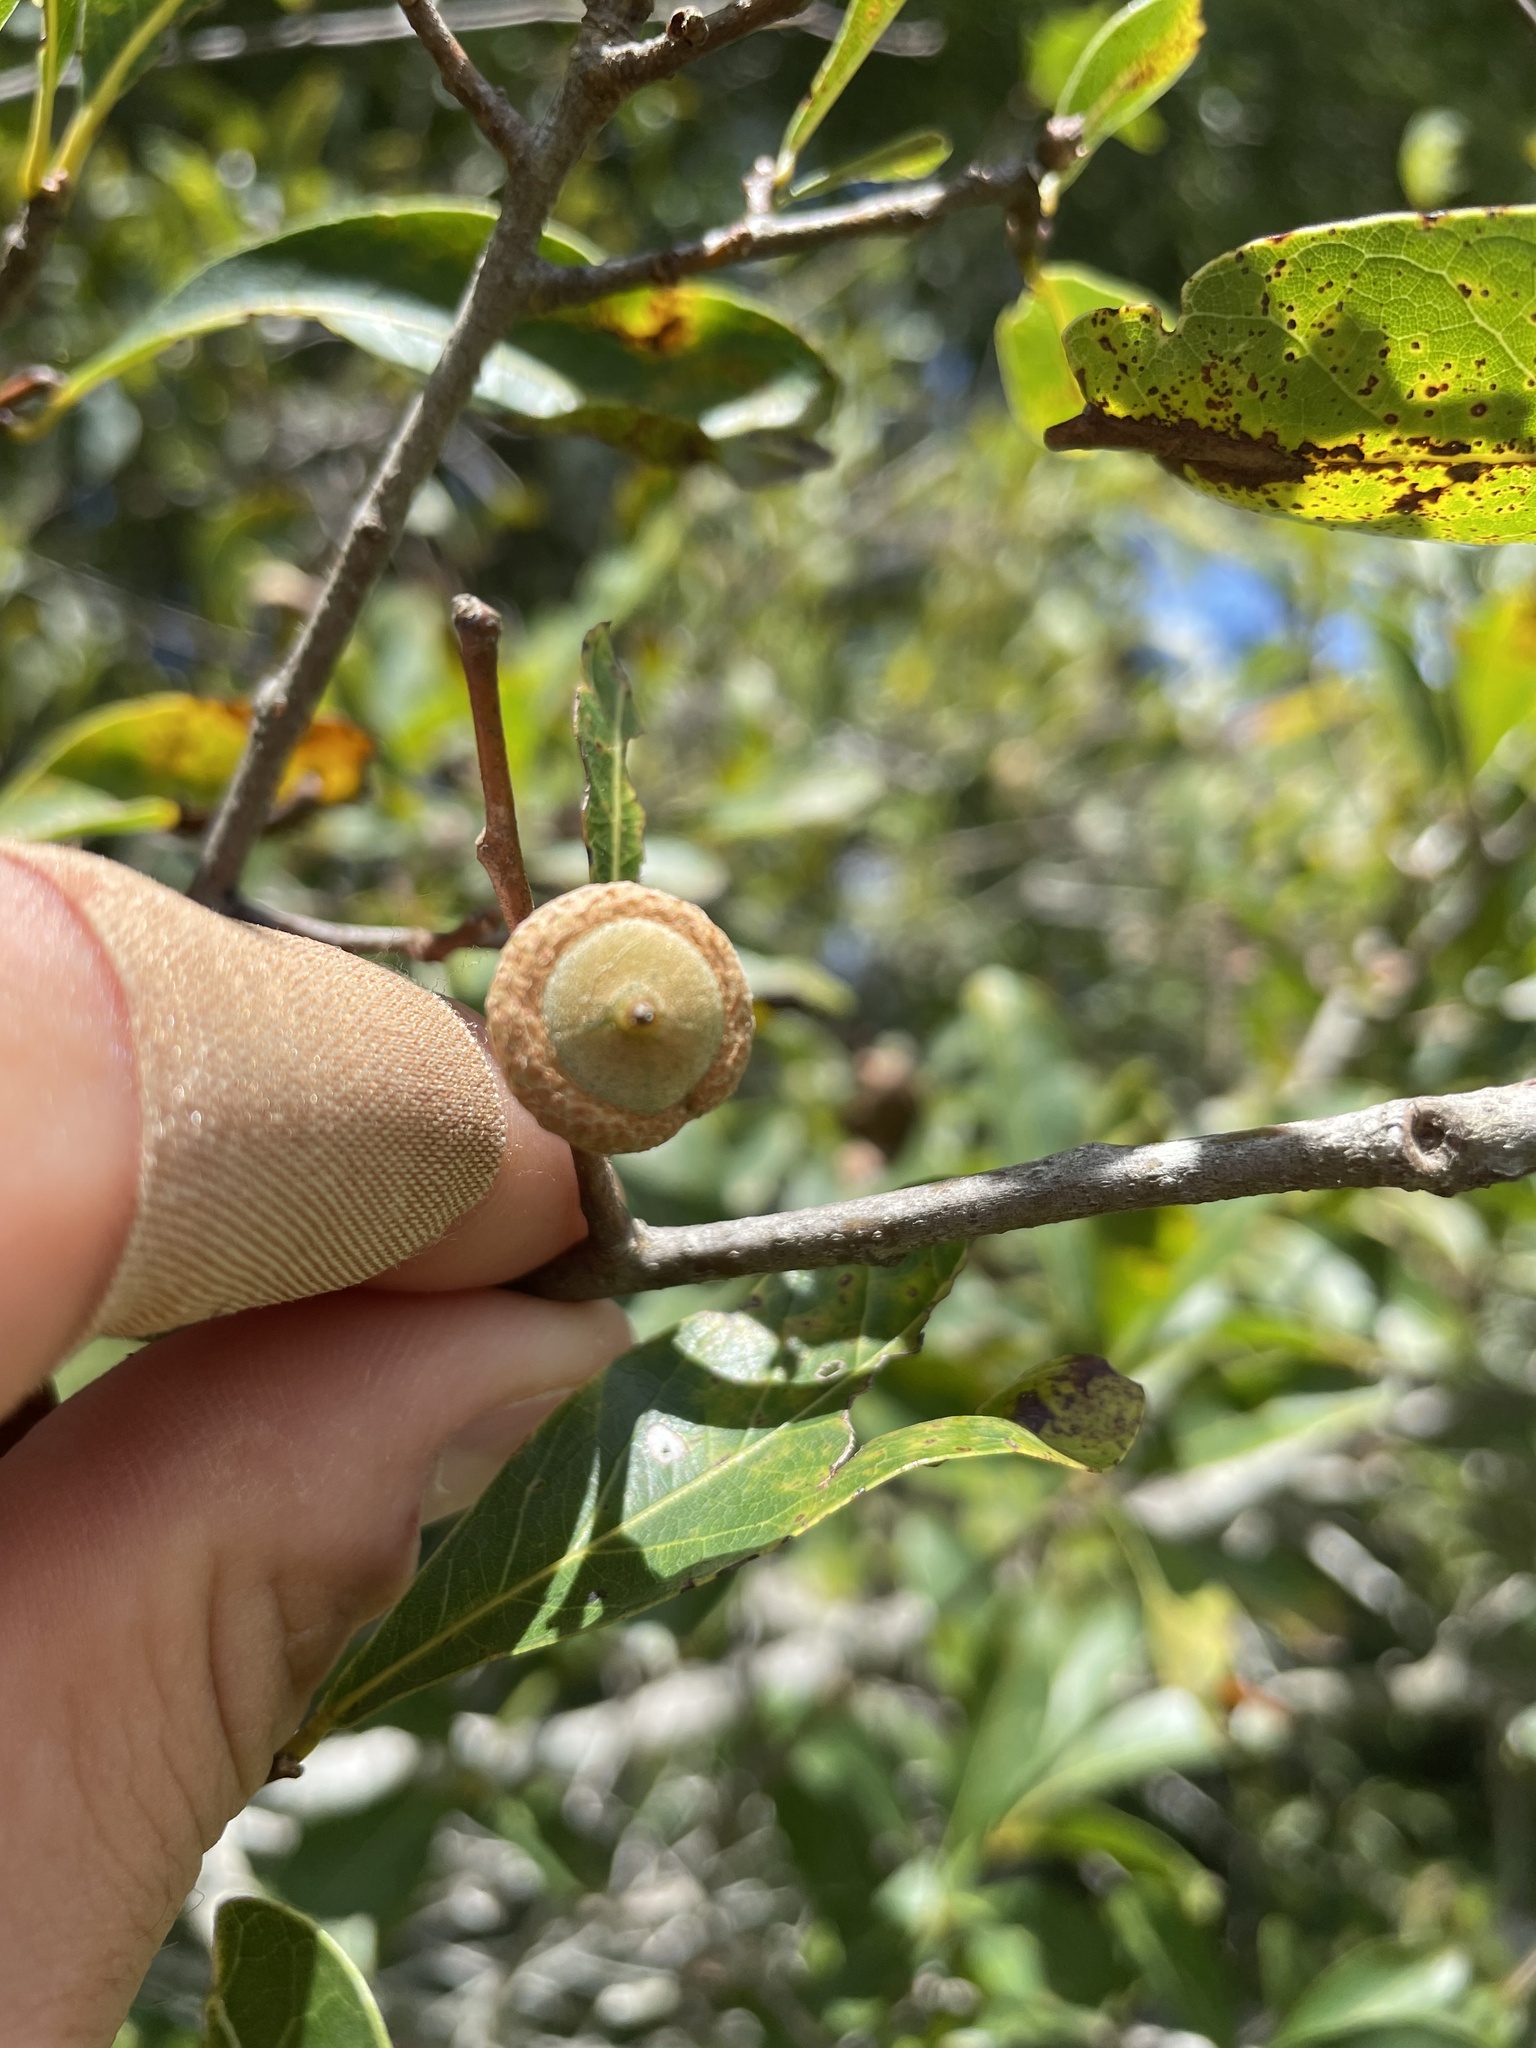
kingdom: Plantae
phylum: Tracheophyta
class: Magnoliopsida
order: Fagales
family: Fagaceae
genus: Quercus
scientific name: Quercus laurifolia
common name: Swamp laurel oak
